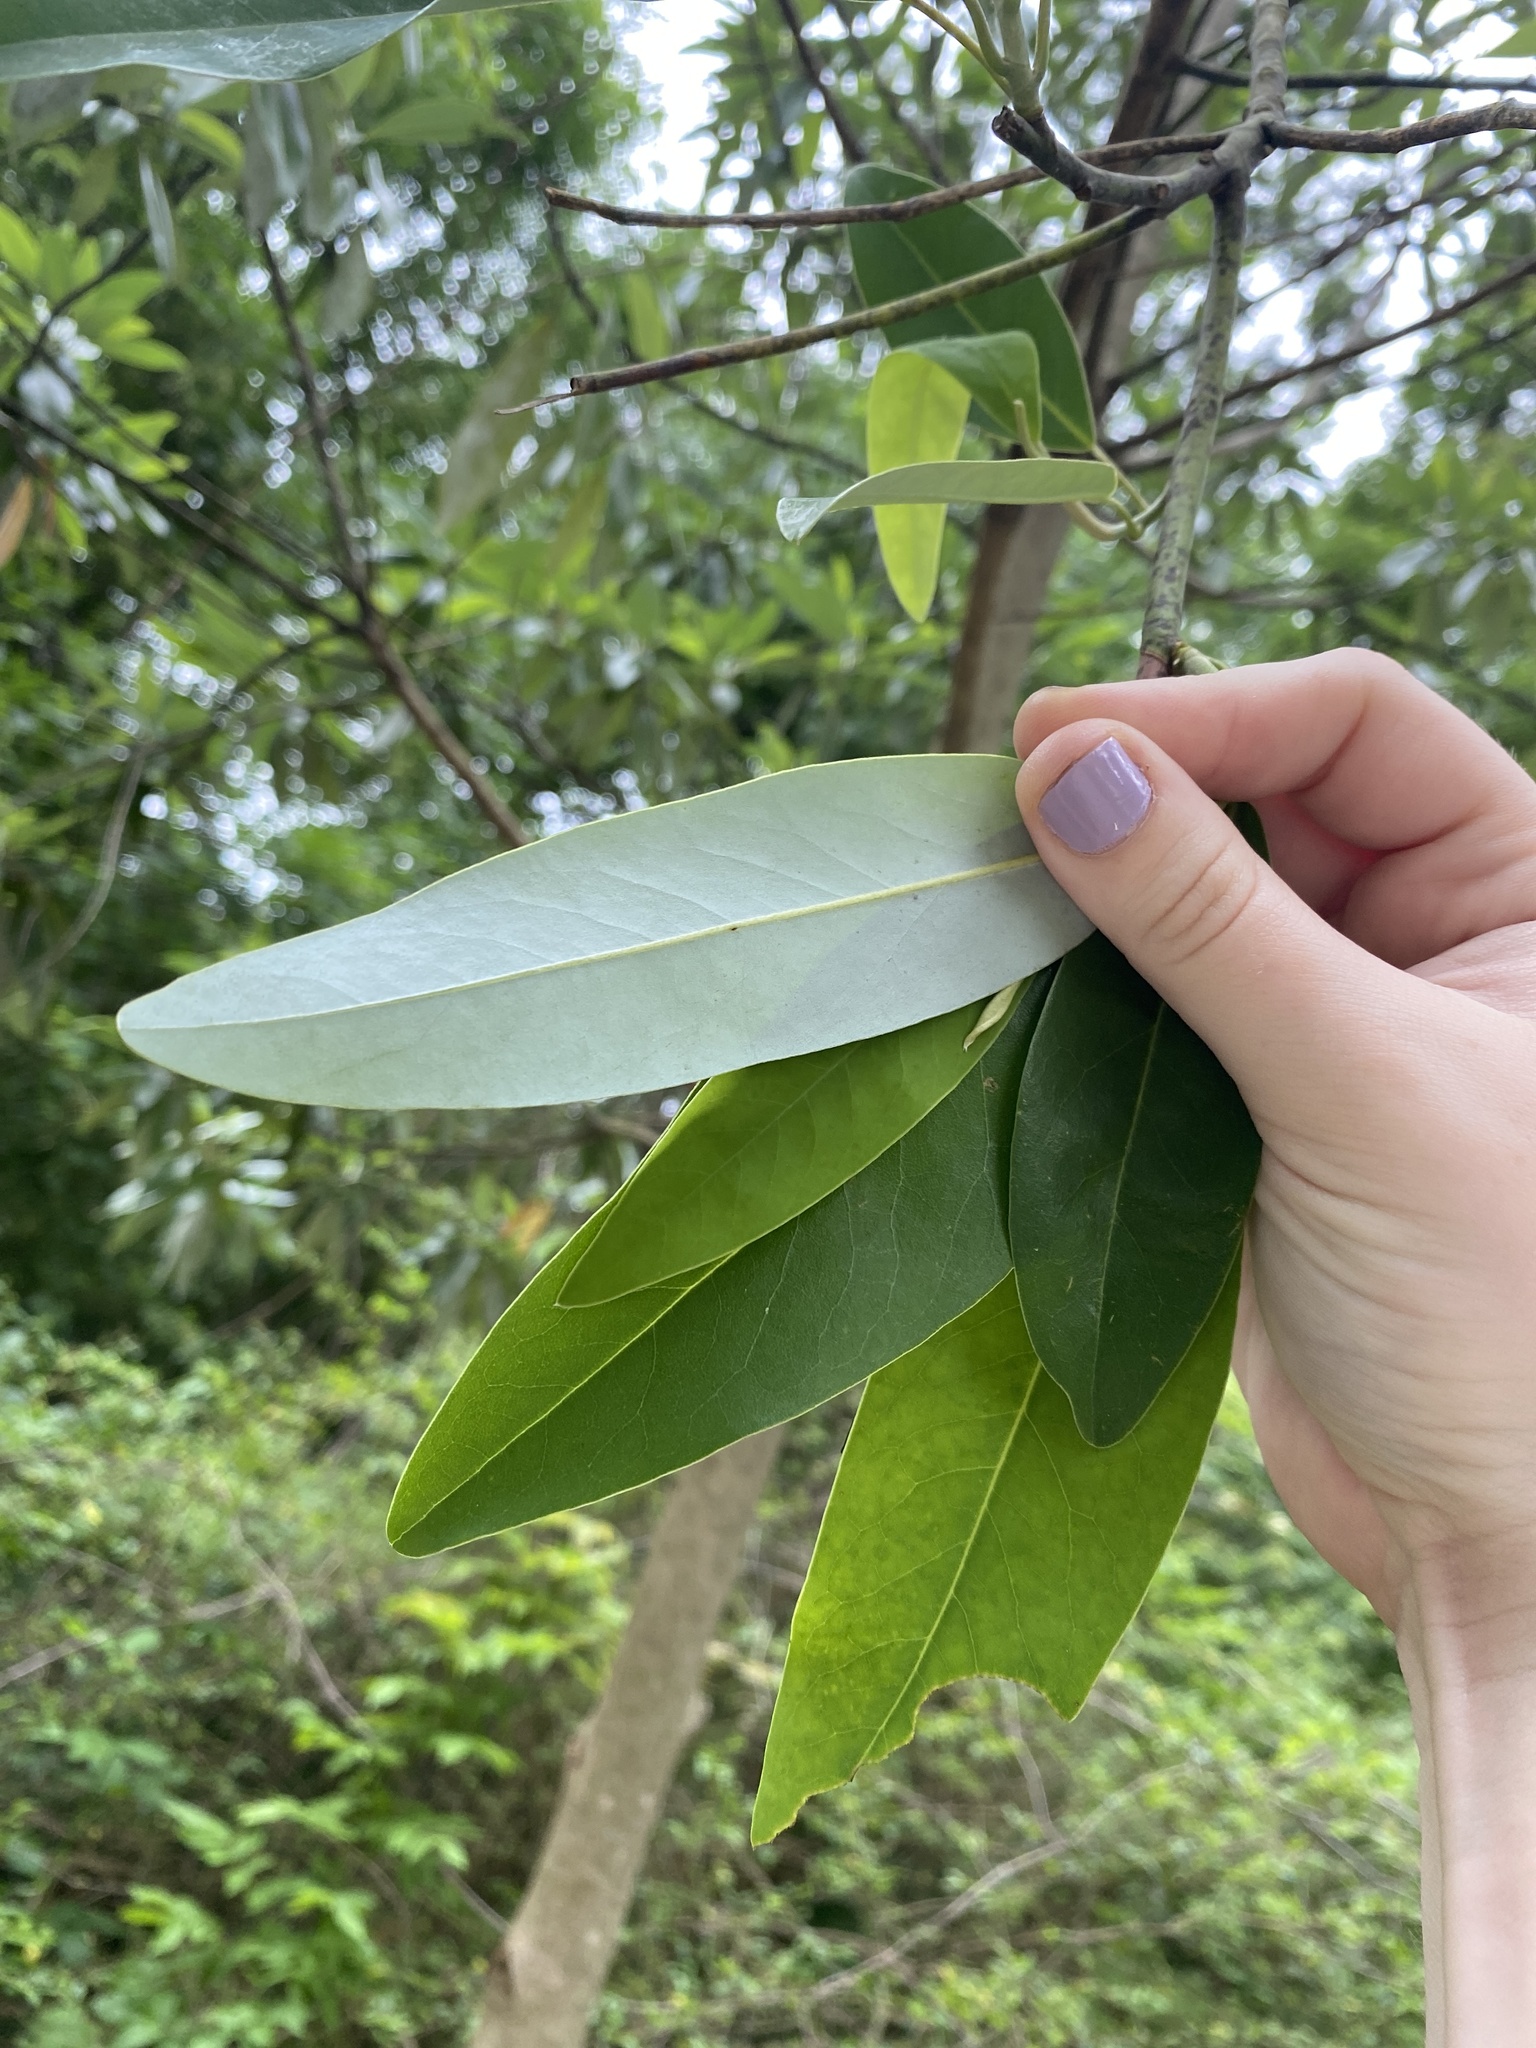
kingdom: Plantae
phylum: Tracheophyta
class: Magnoliopsida
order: Magnoliales
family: Magnoliaceae
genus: Magnolia
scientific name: Magnolia virginiana
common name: Swamp bay
